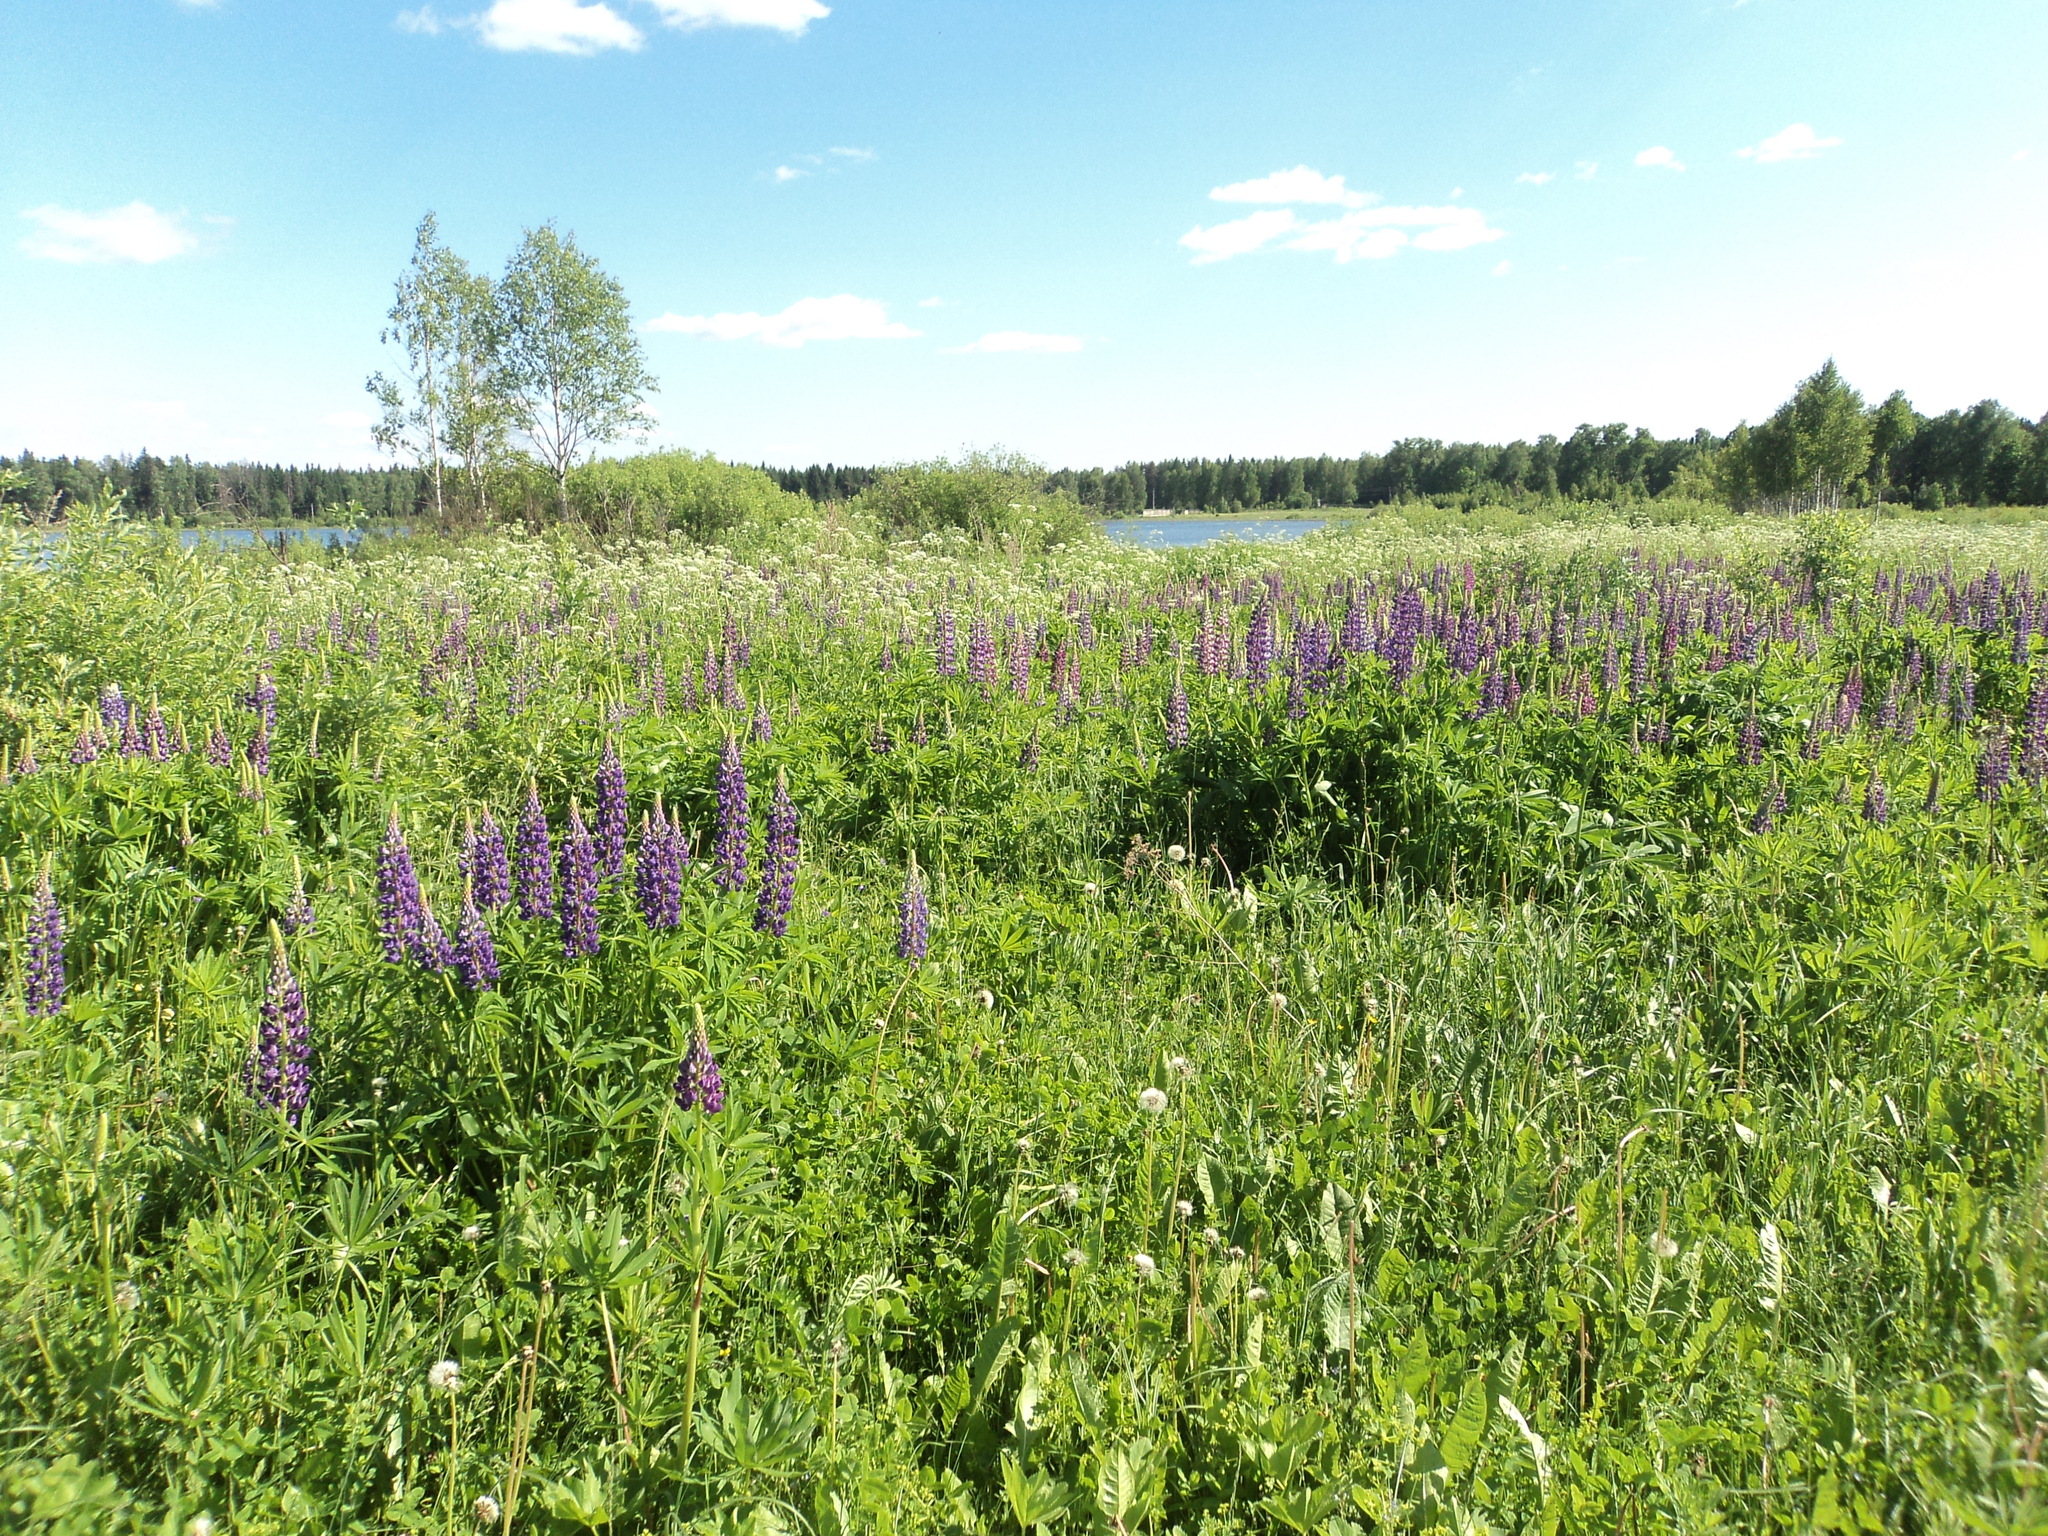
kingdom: Plantae
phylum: Tracheophyta
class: Magnoliopsida
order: Fabales
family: Fabaceae
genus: Lupinus
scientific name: Lupinus polyphyllus
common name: Garden lupin
